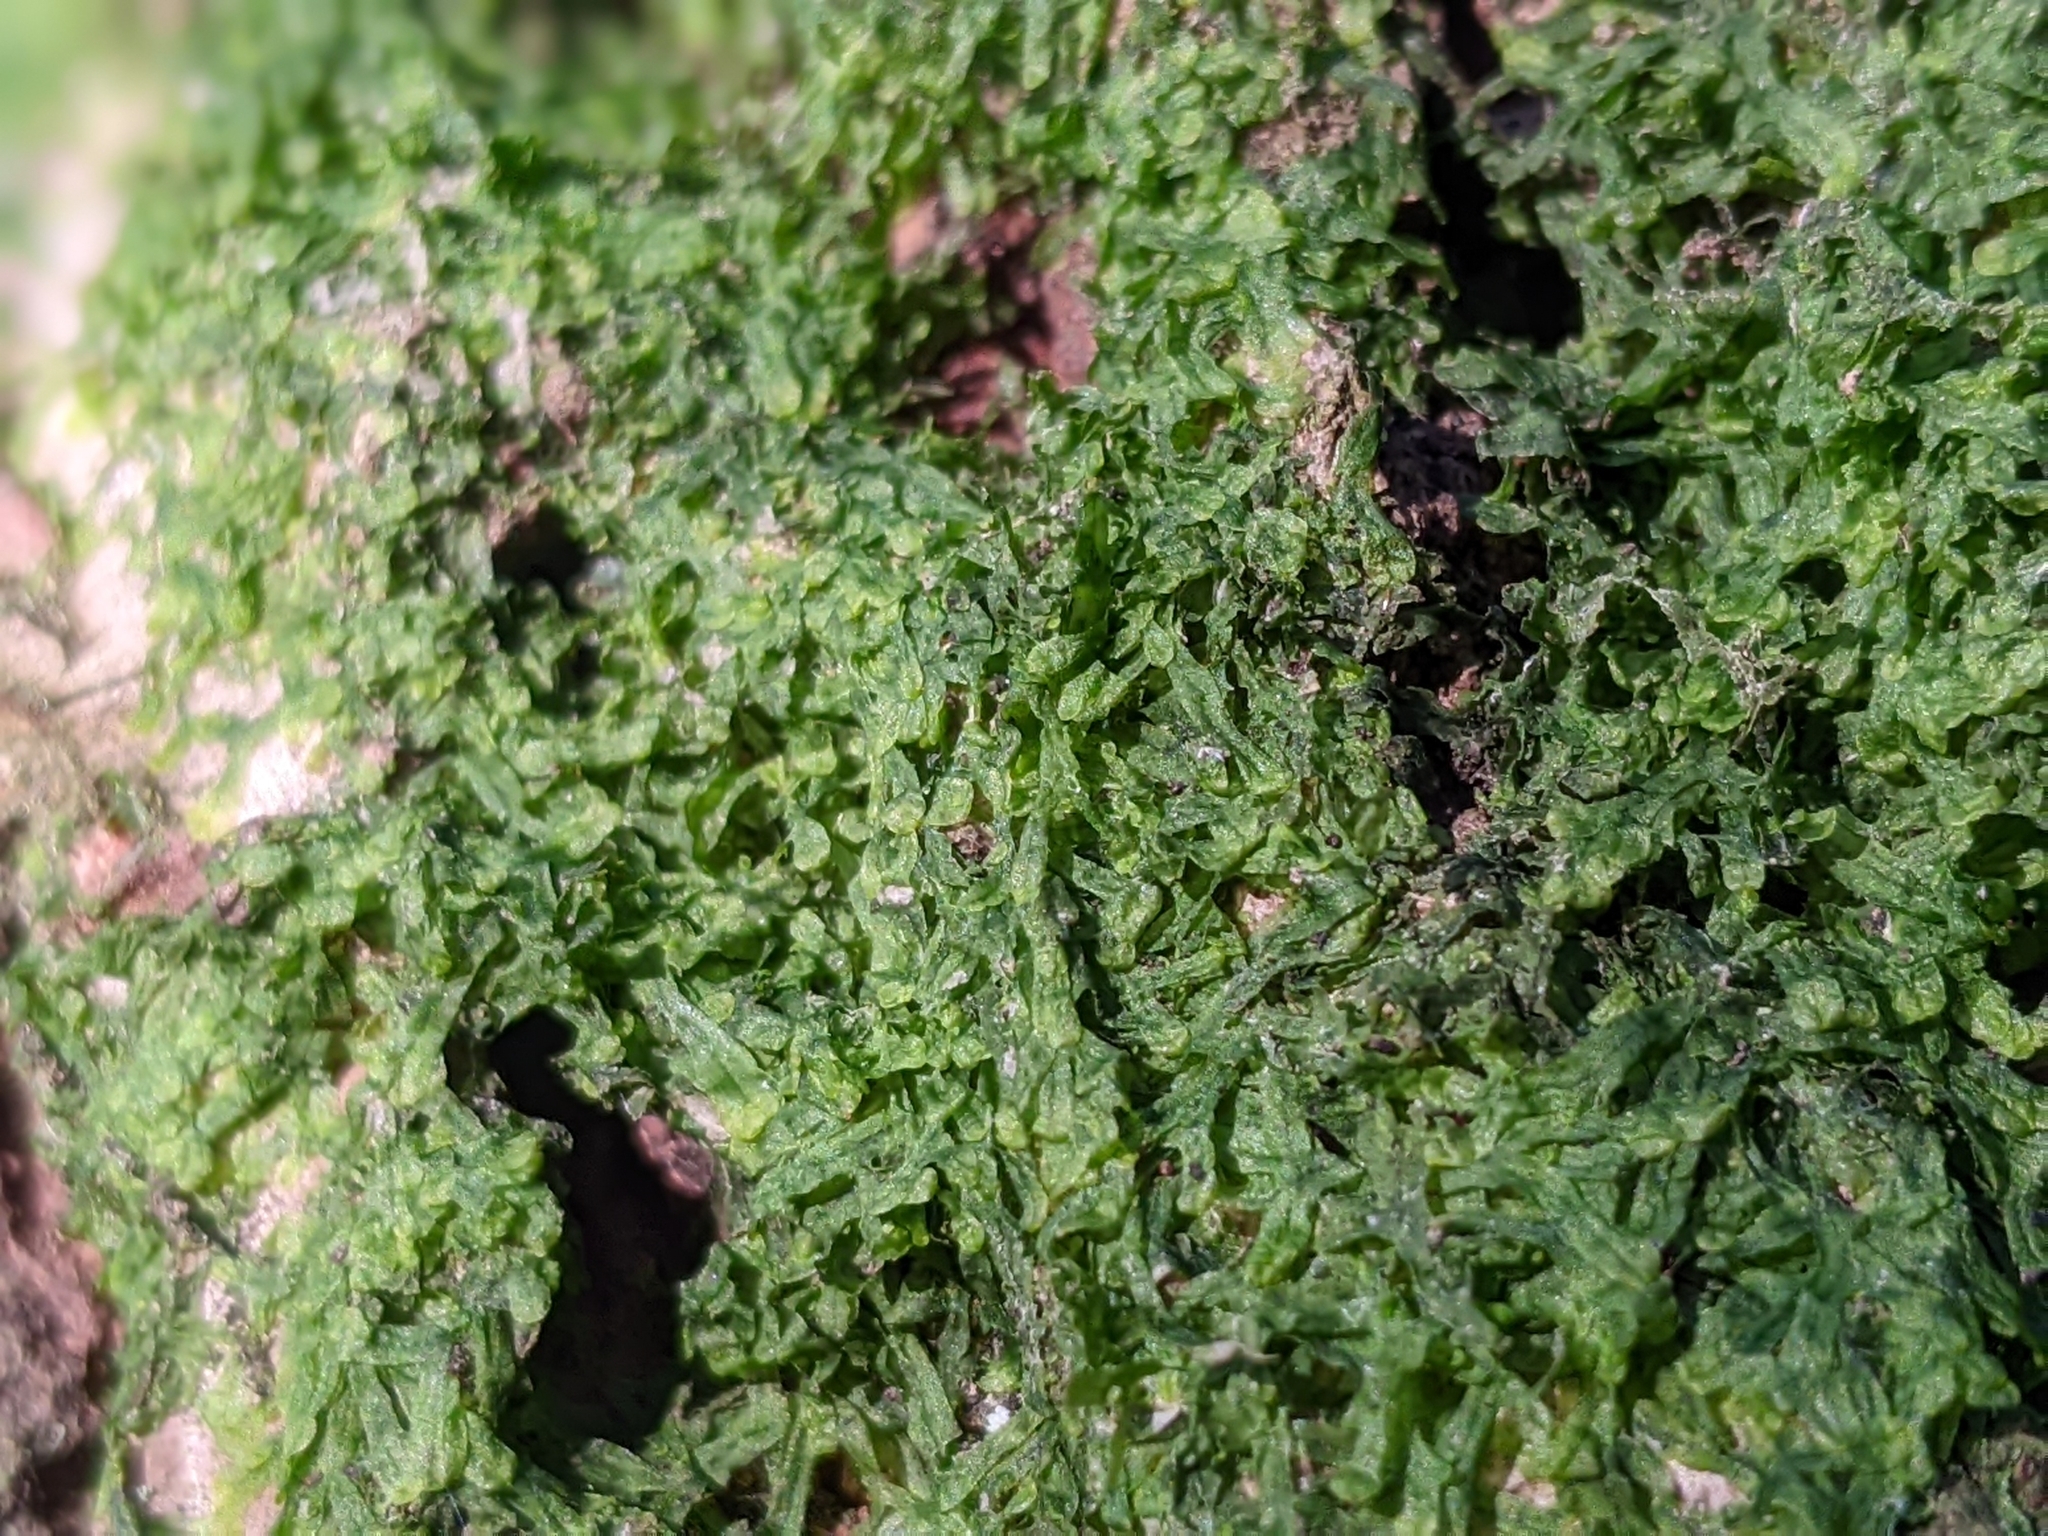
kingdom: Plantae
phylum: Marchantiophyta
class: Jungermanniopsida
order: Metzgeriales
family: Metzgeriaceae
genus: Metzgeria
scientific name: Metzgeria furcata
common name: Forked veilwort
